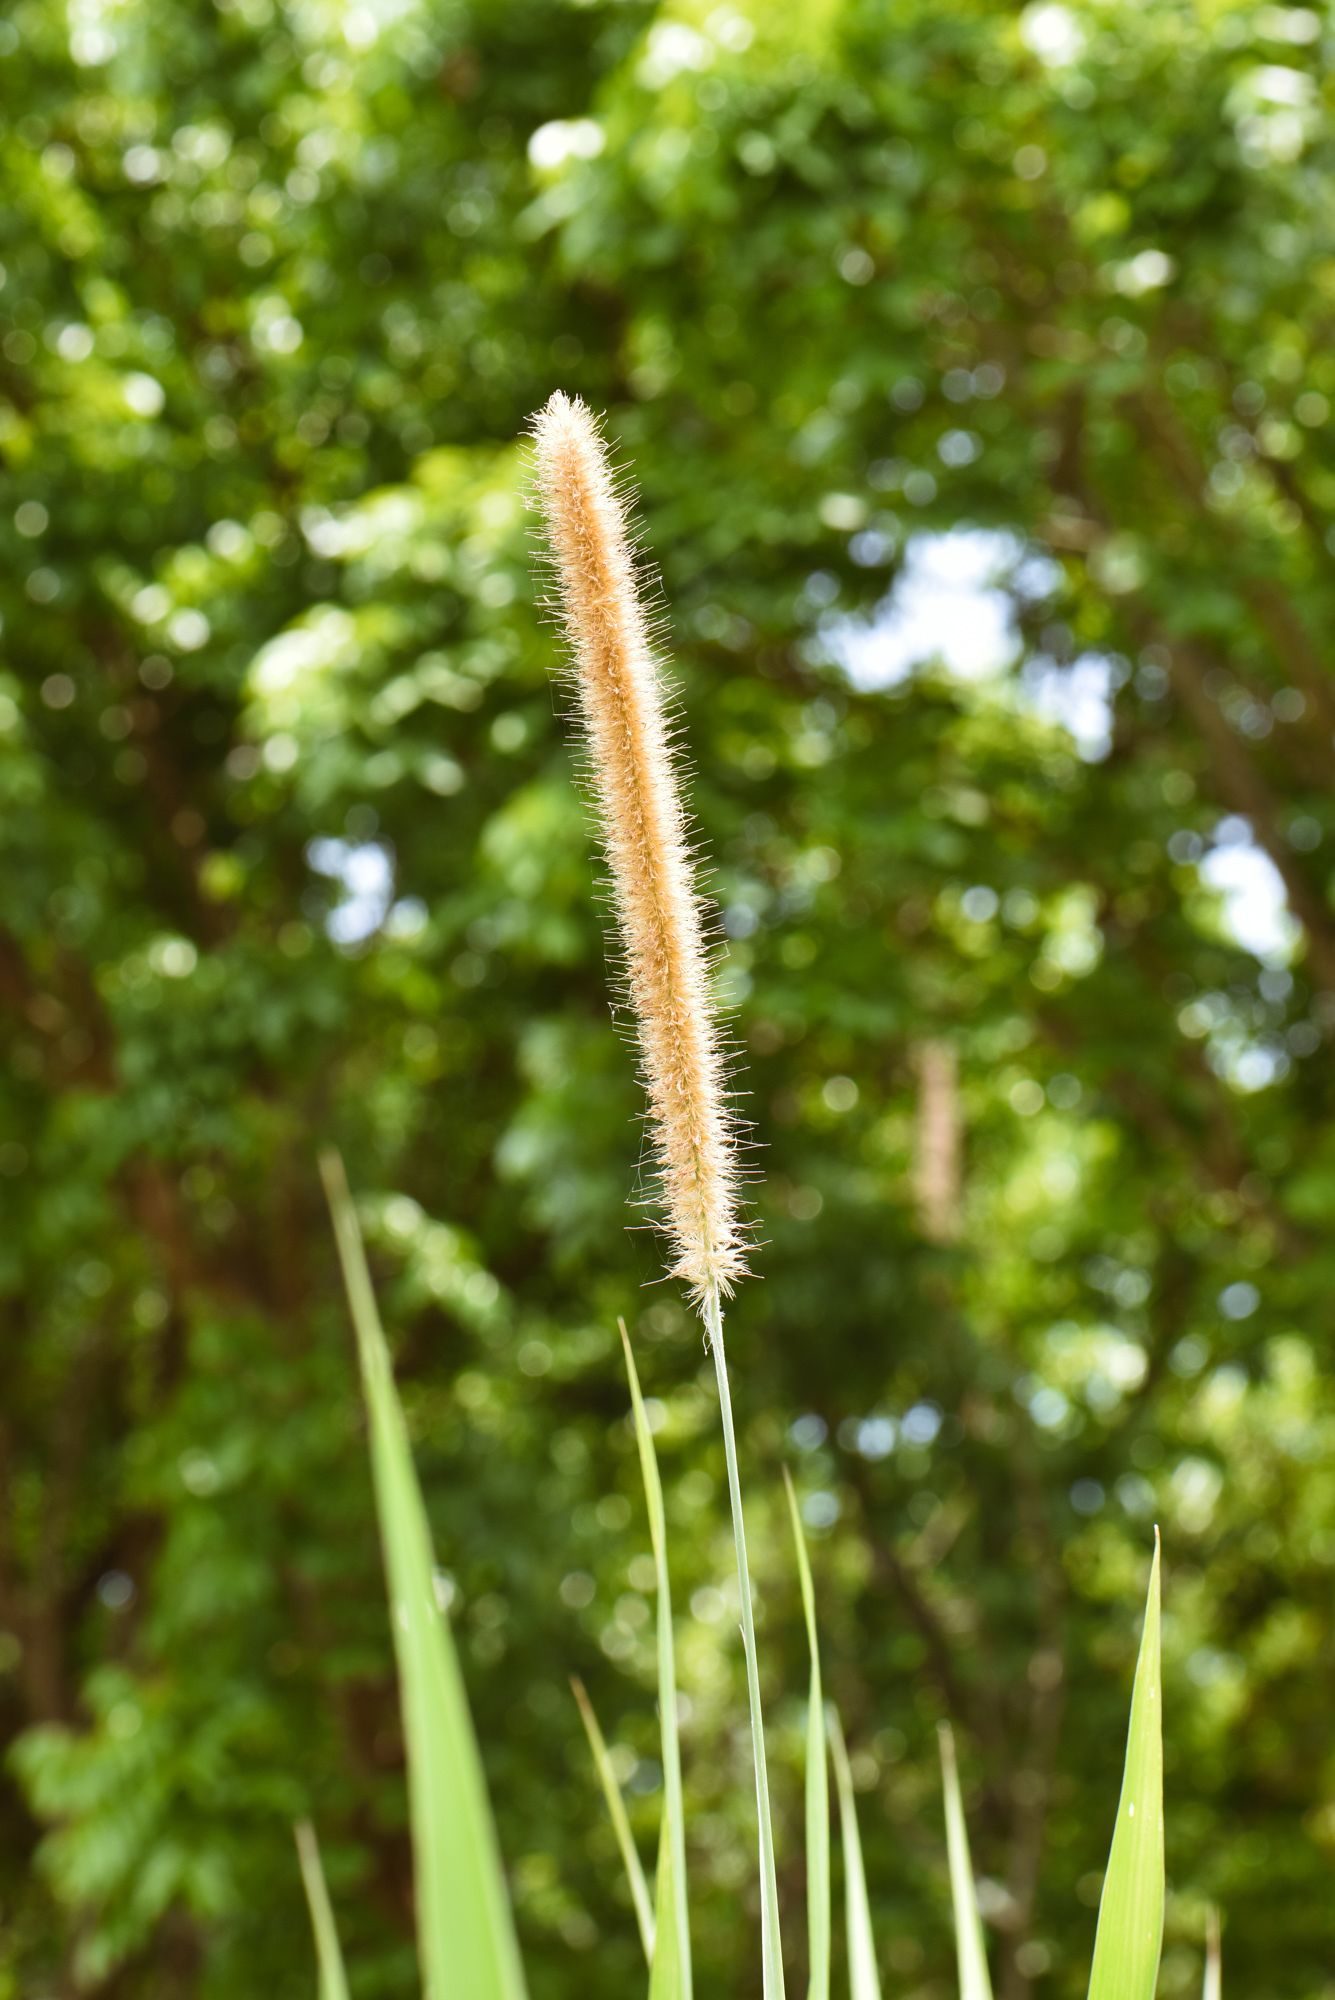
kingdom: Plantae
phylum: Tracheophyta
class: Liliopsida
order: Poales
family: Poaceae
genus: Cenchrus
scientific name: Cenchrus purpureus
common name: Elephant grass
